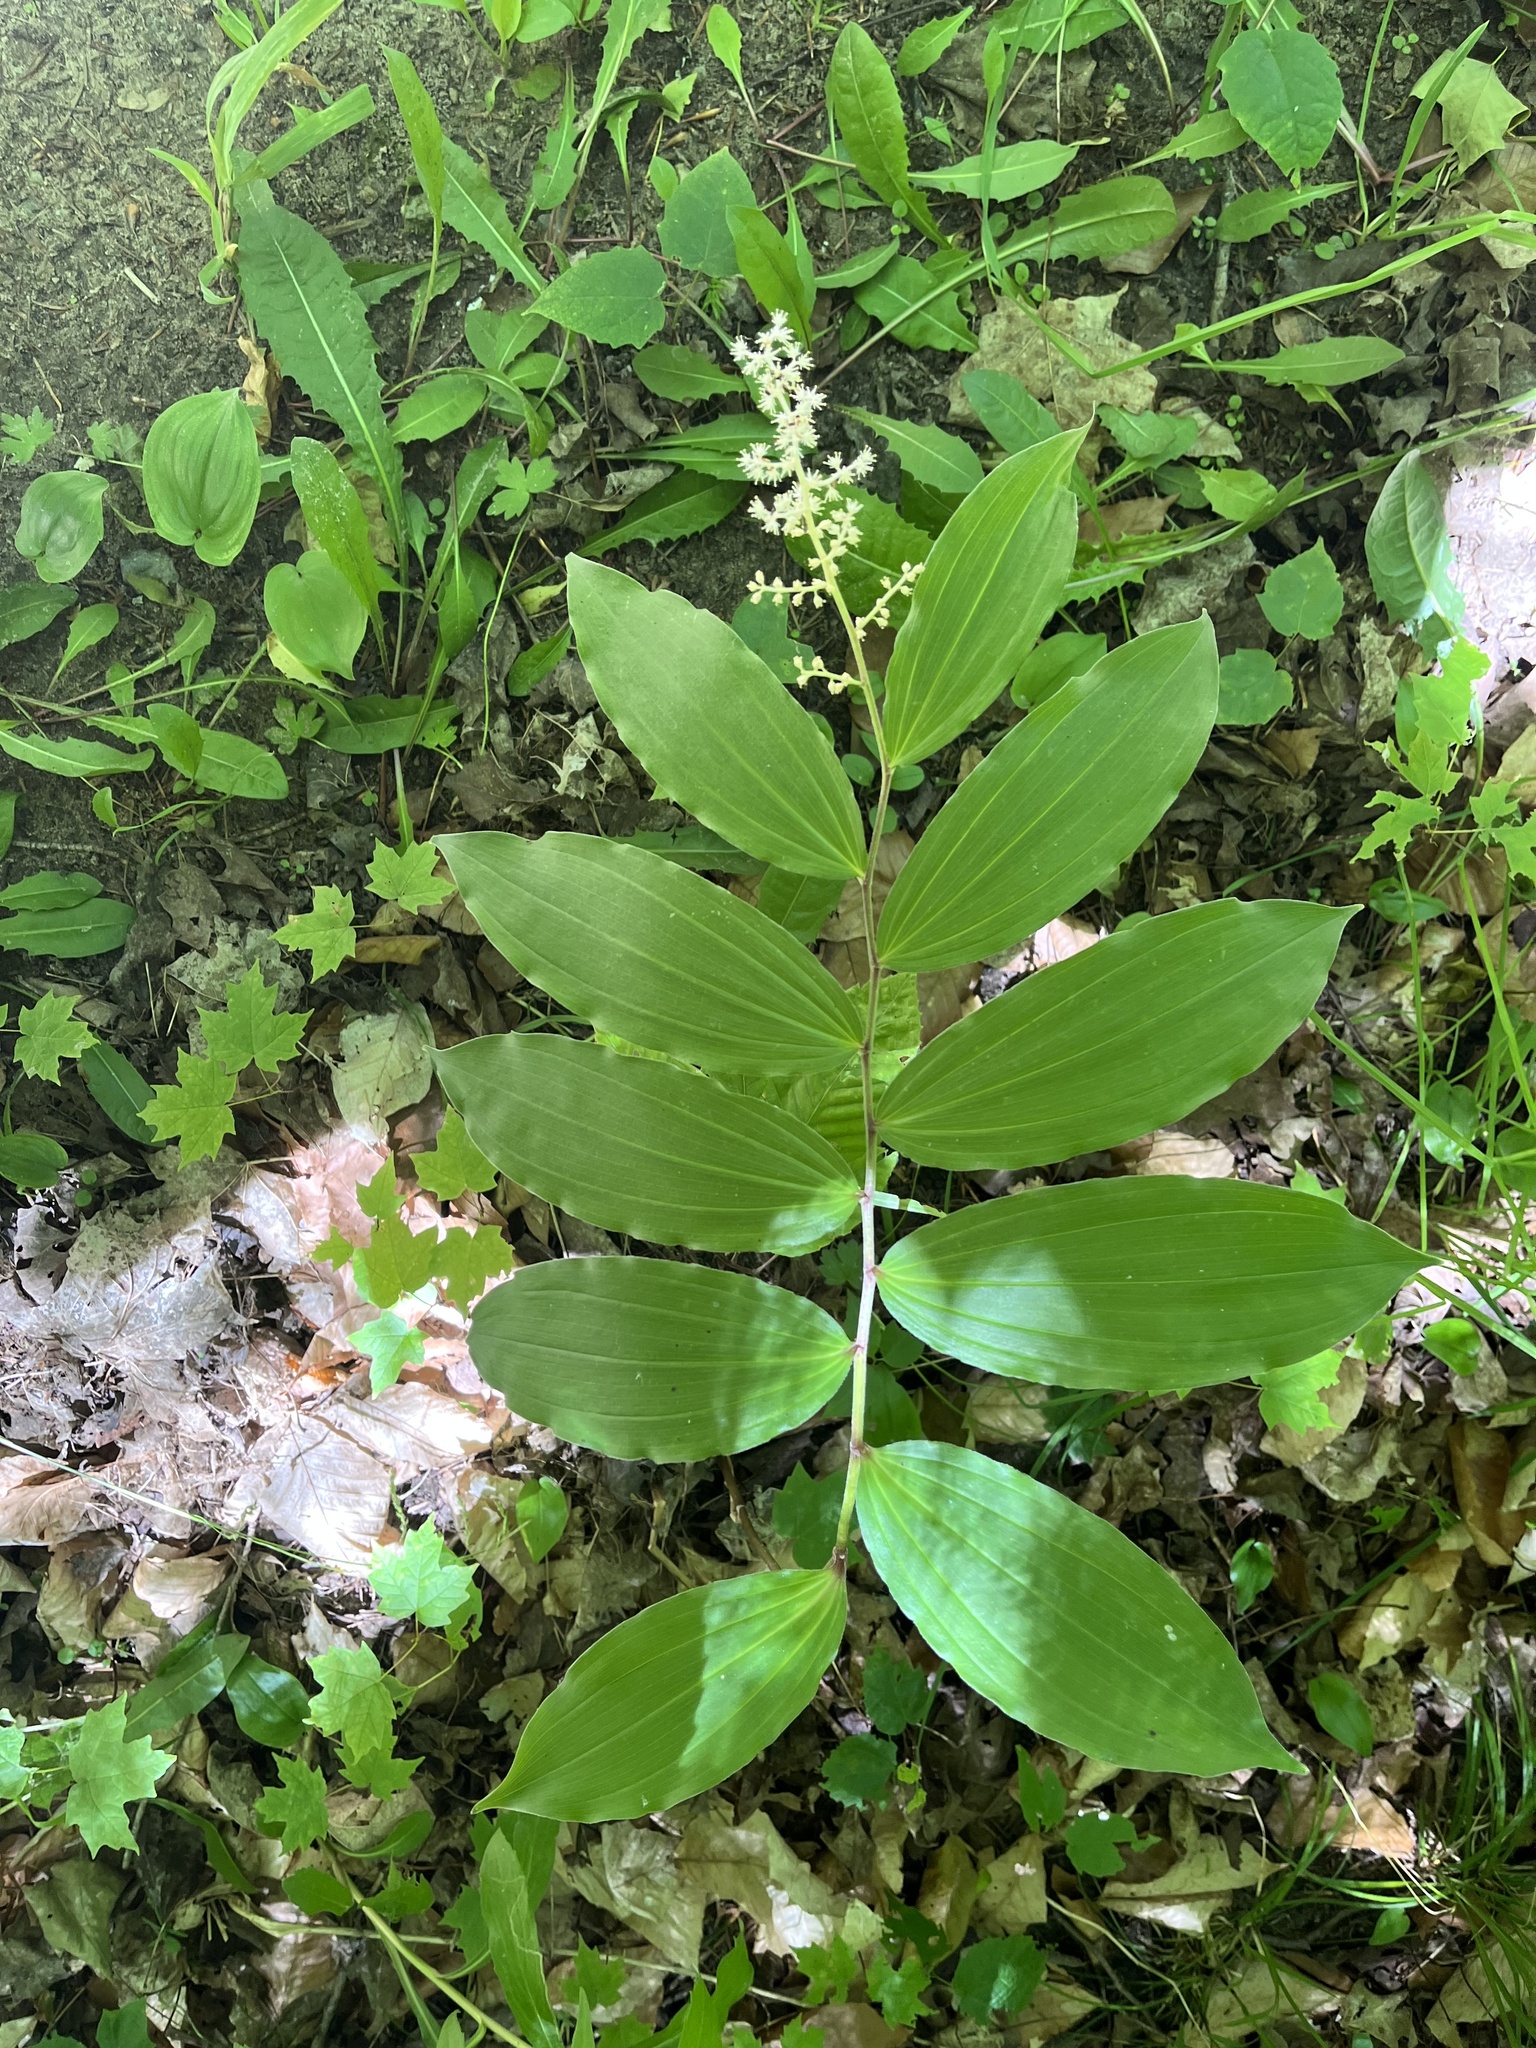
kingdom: Plantae
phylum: Tracheophyta
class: Liliopsida
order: Asparagales
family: Asparagaceae
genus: Maianthemum
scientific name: Maianthemum racemosum
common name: False spikenard
